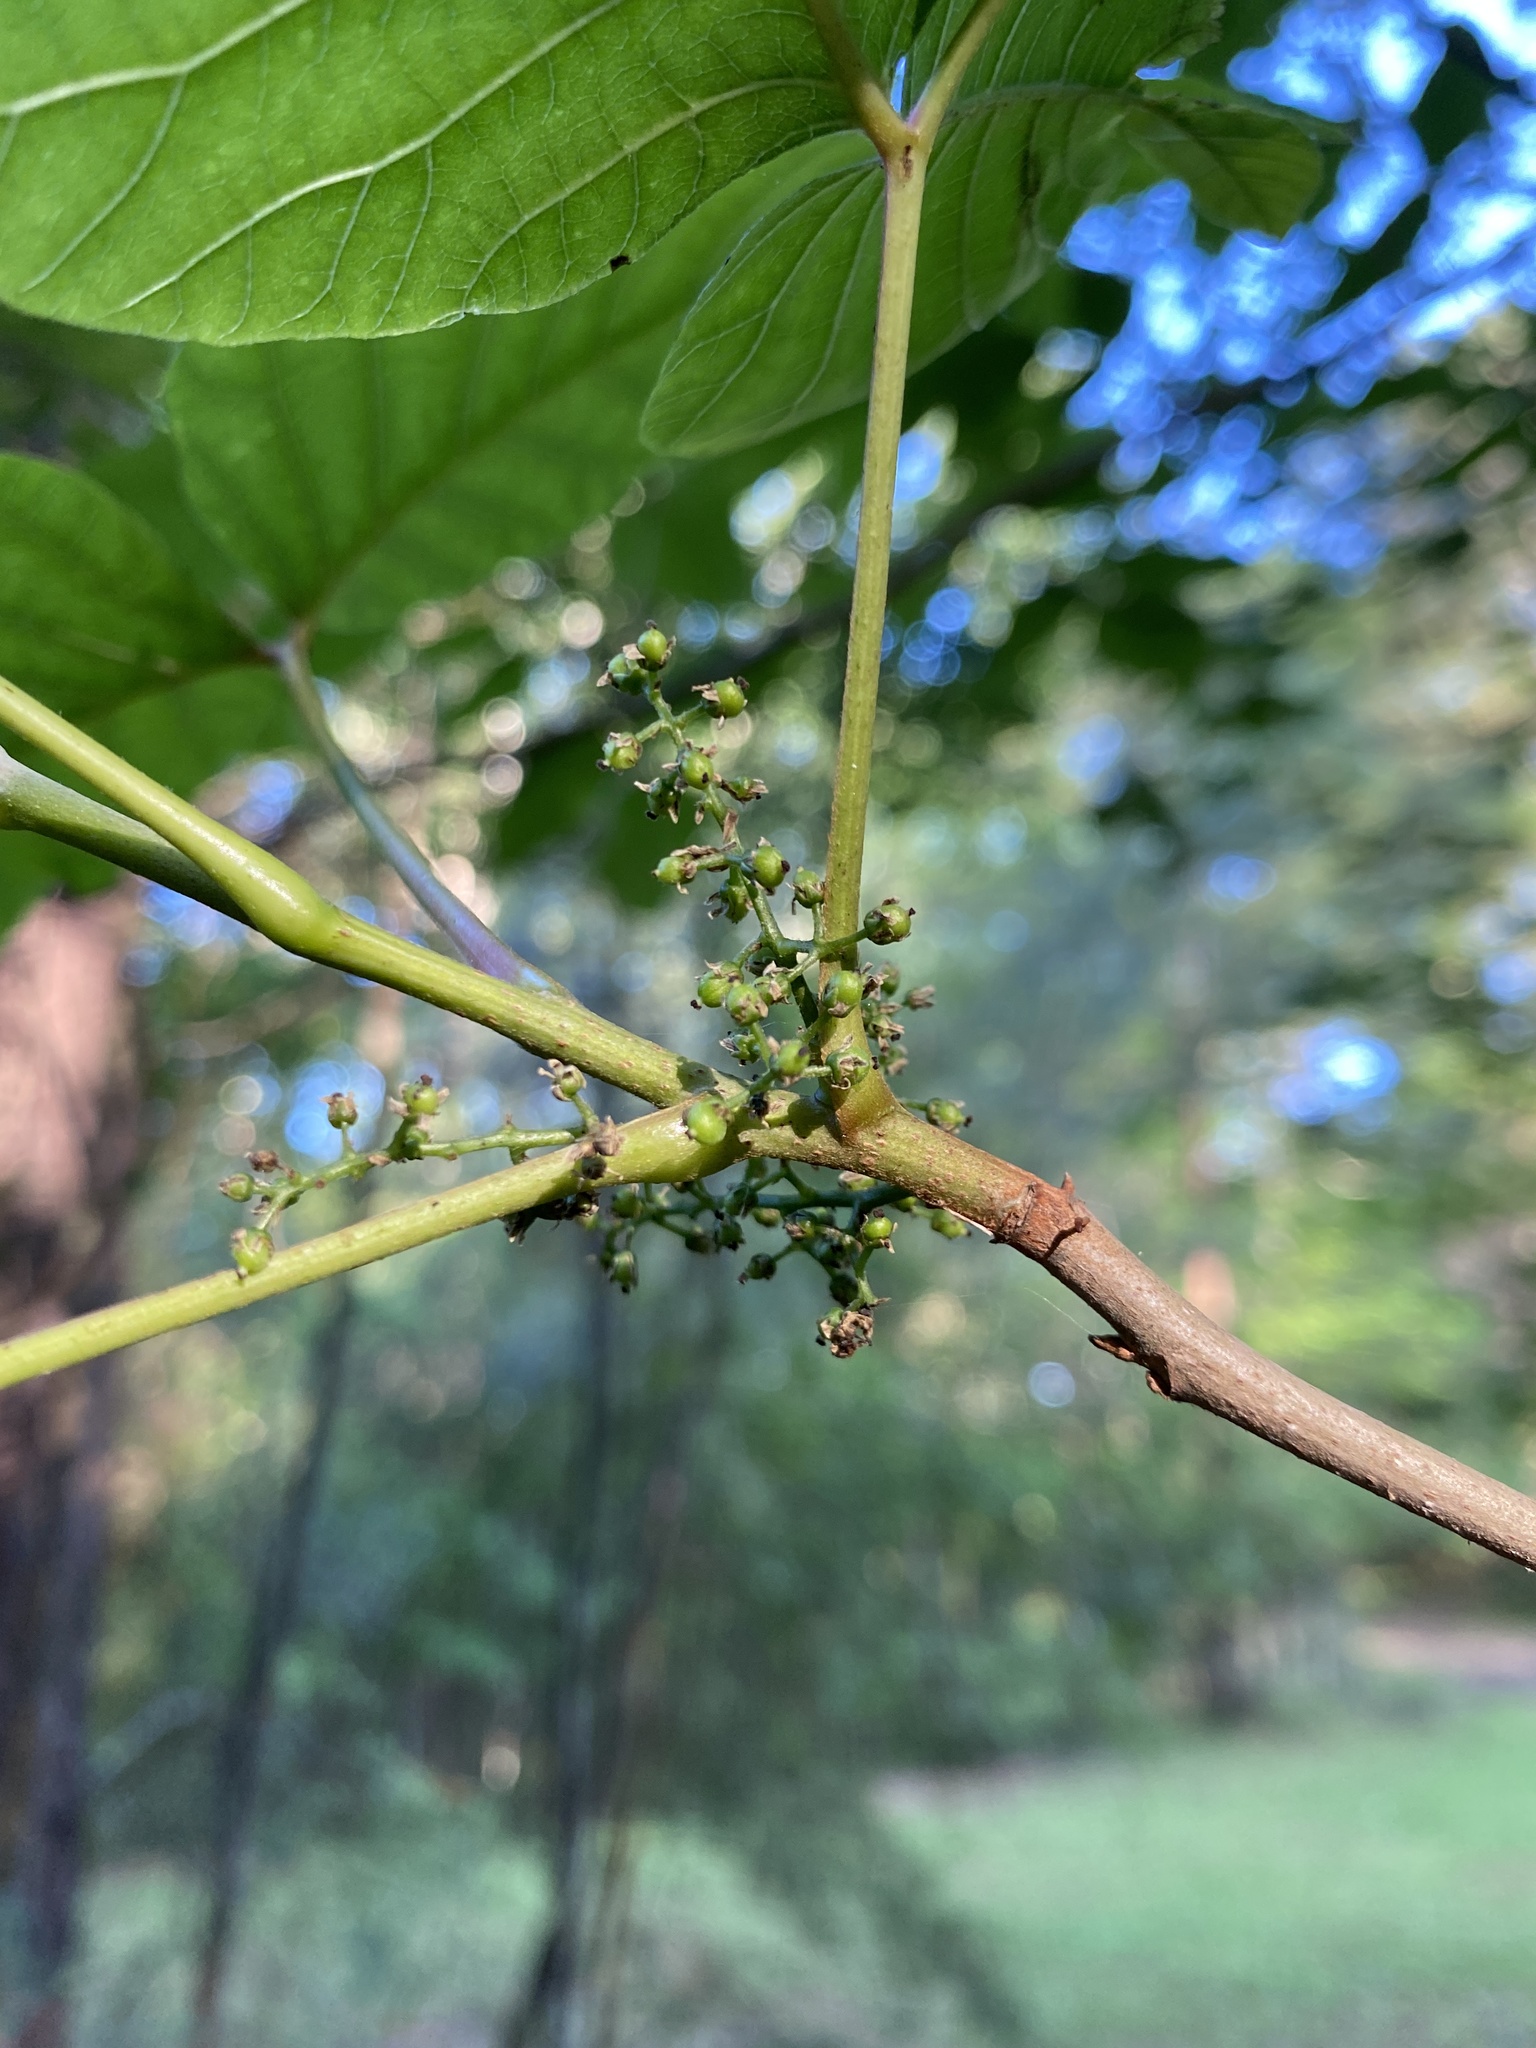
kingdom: Plantae
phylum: Tracheophyta
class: Magnoliopsida
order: Sapindales
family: Anacardiaceae
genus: Toxicodendron
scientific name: Toxicodendron radicans
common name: Poison ivy
